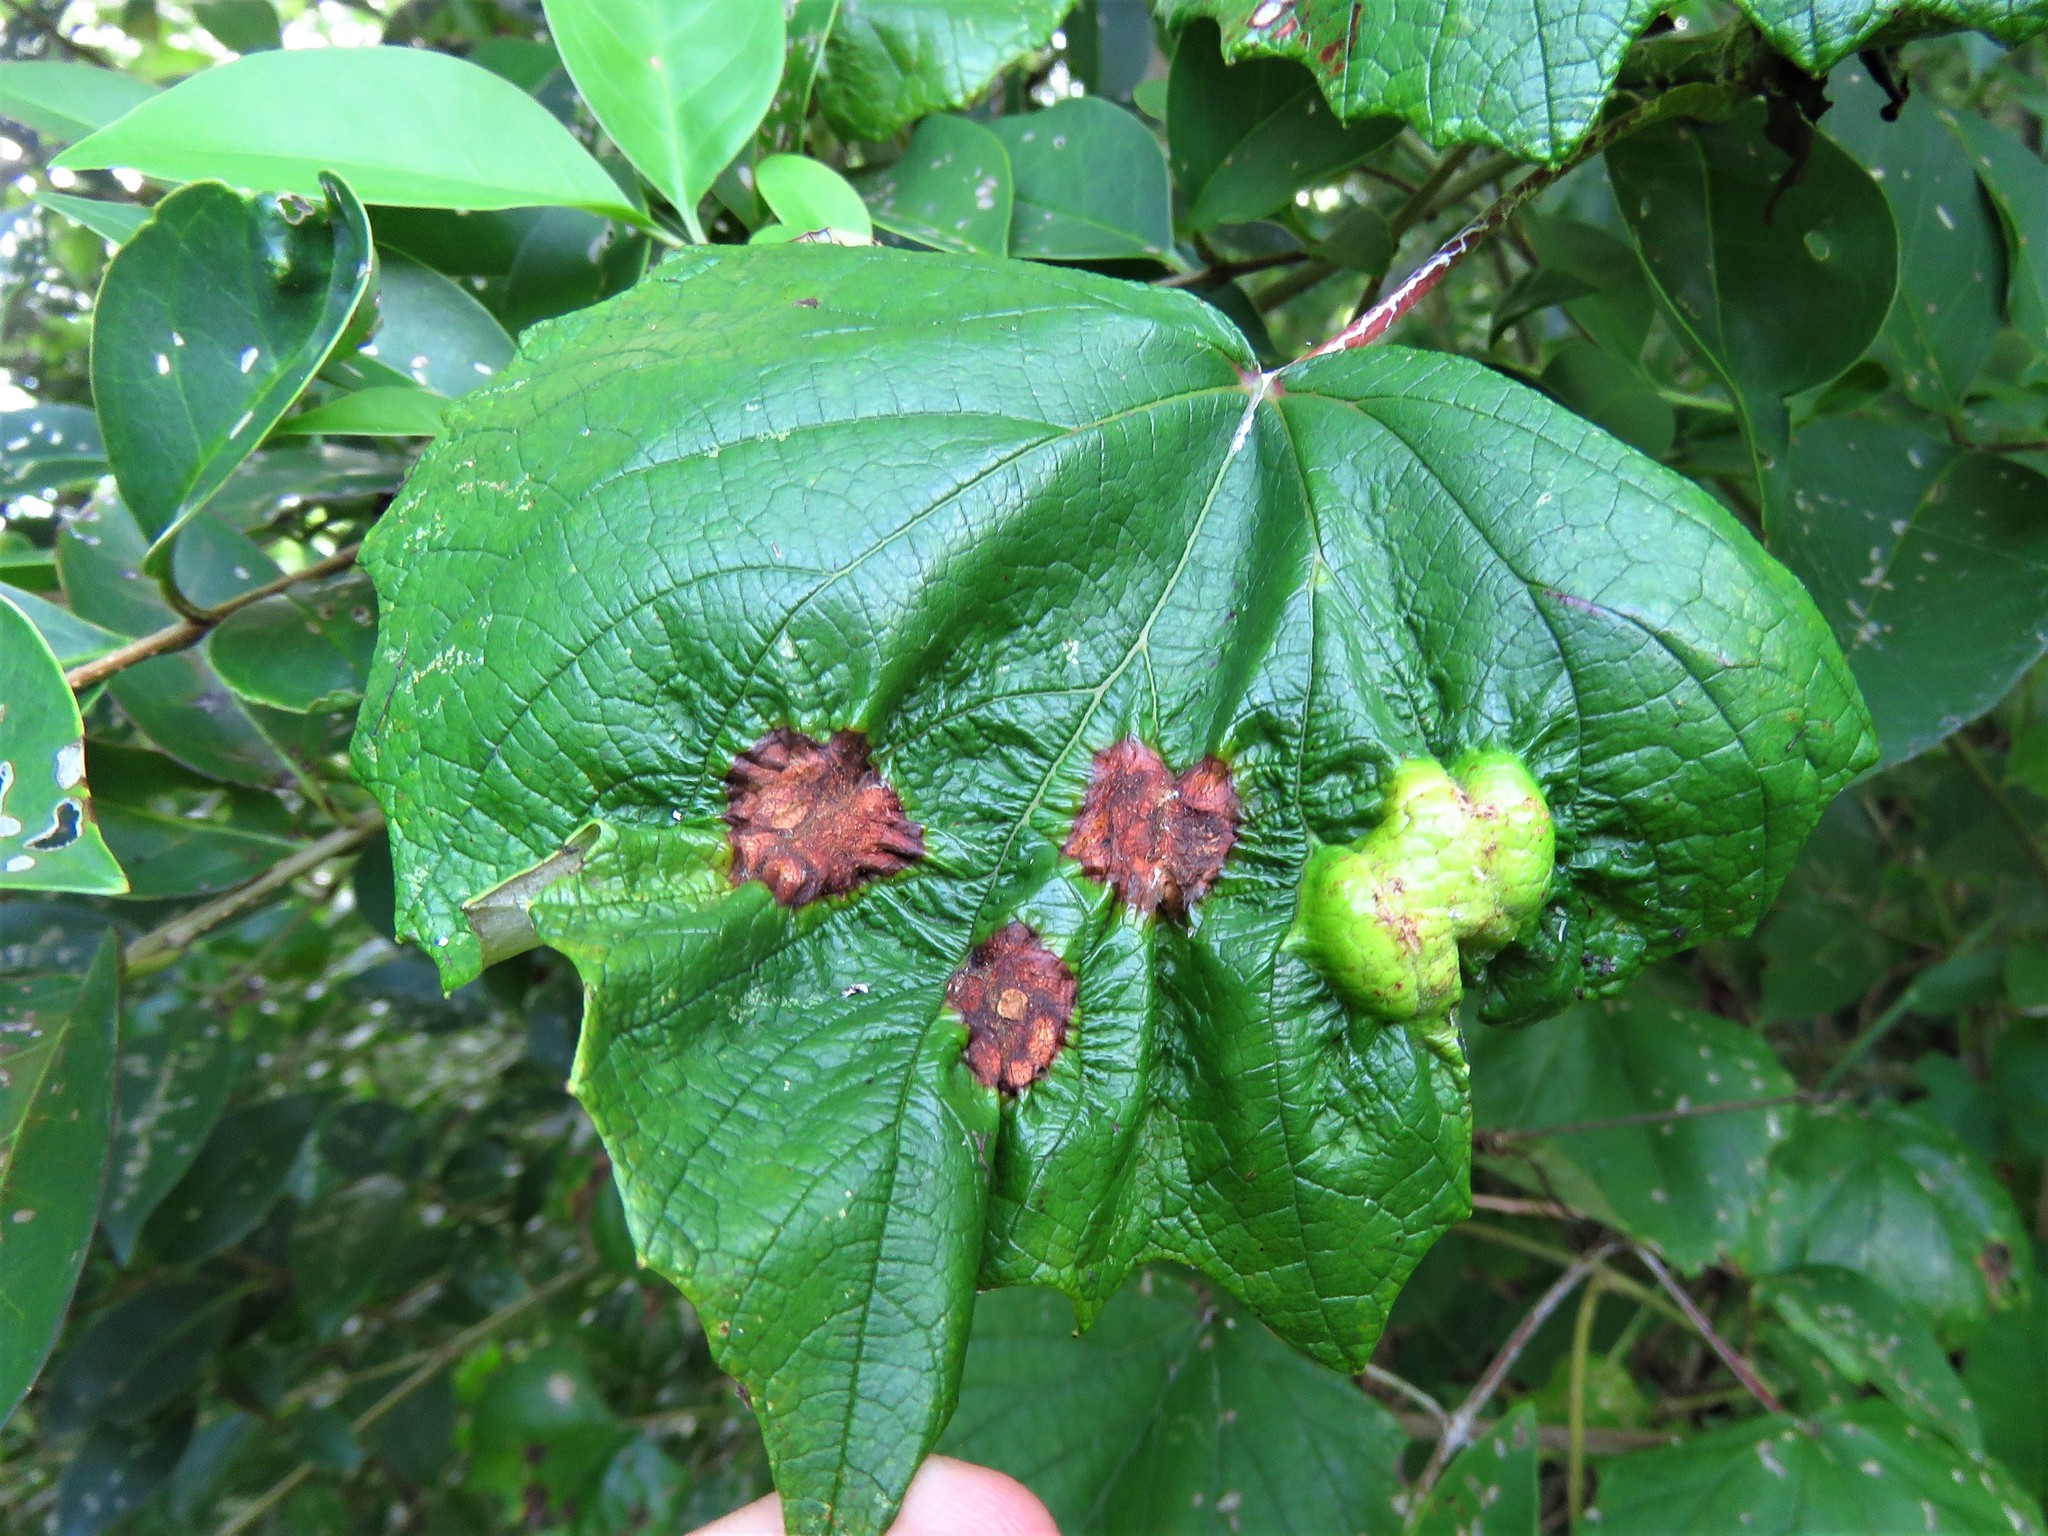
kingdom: Animalia
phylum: Arthropoda
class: Insecta
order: Lepidoptera
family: Heliozelidae
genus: Heliozela
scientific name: Heliozela aesella
